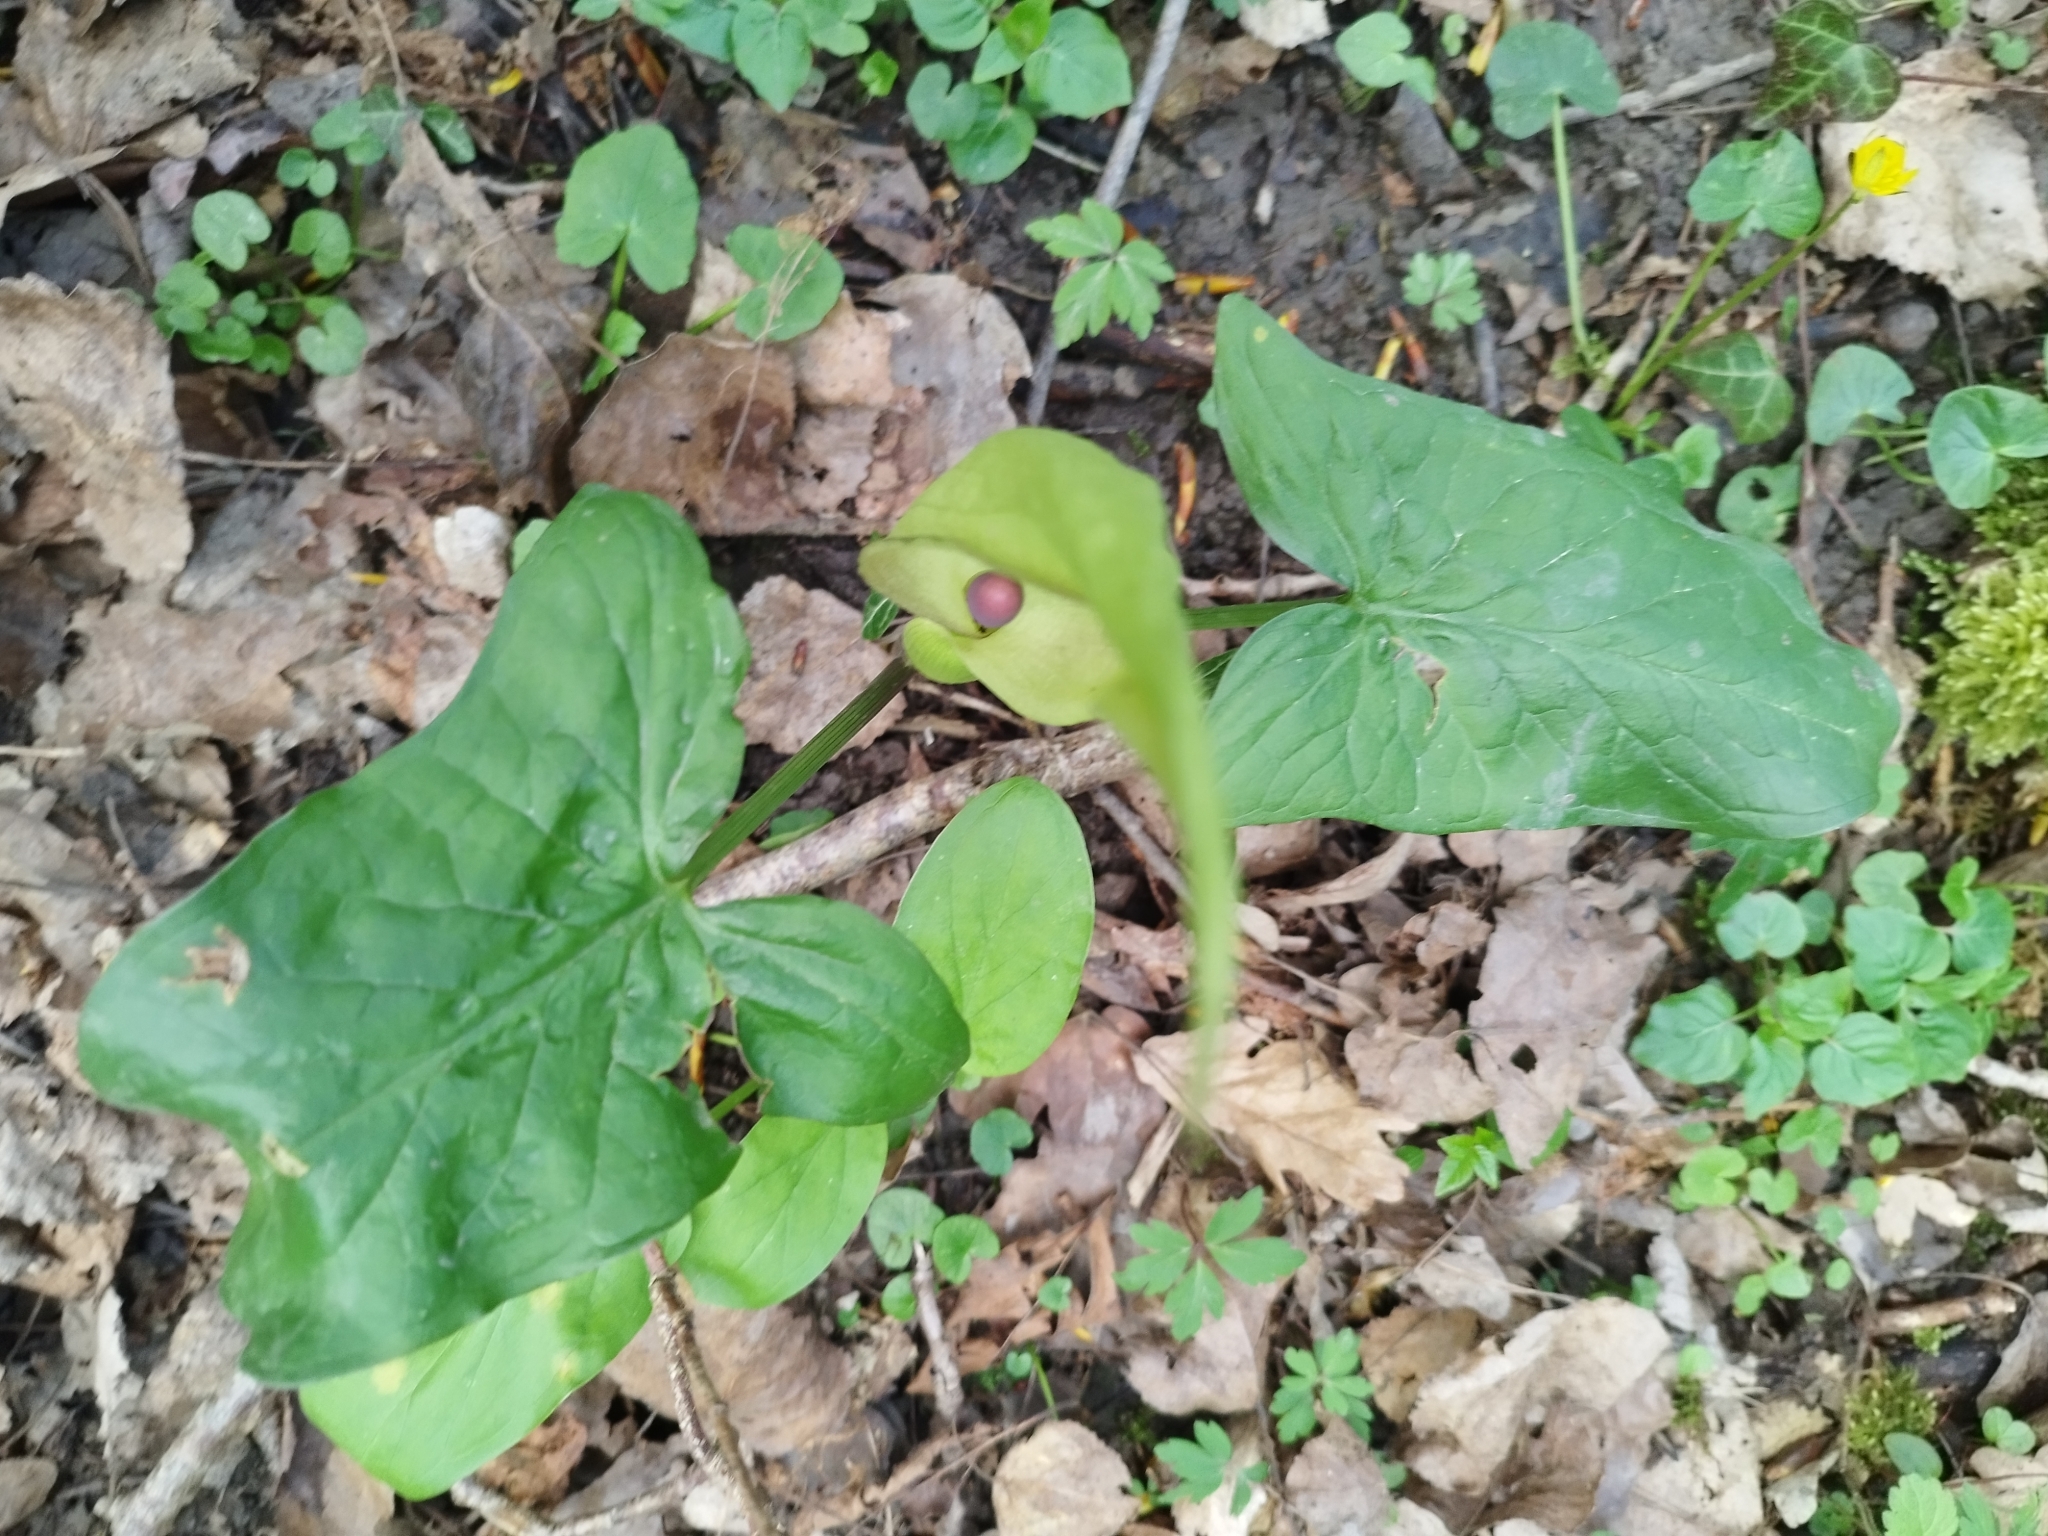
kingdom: Plantae
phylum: Tracheophyta
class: Liliopsida
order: Alismatales
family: Araceae
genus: Arum
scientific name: Arum maculatum
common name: Lords-and-ladies
